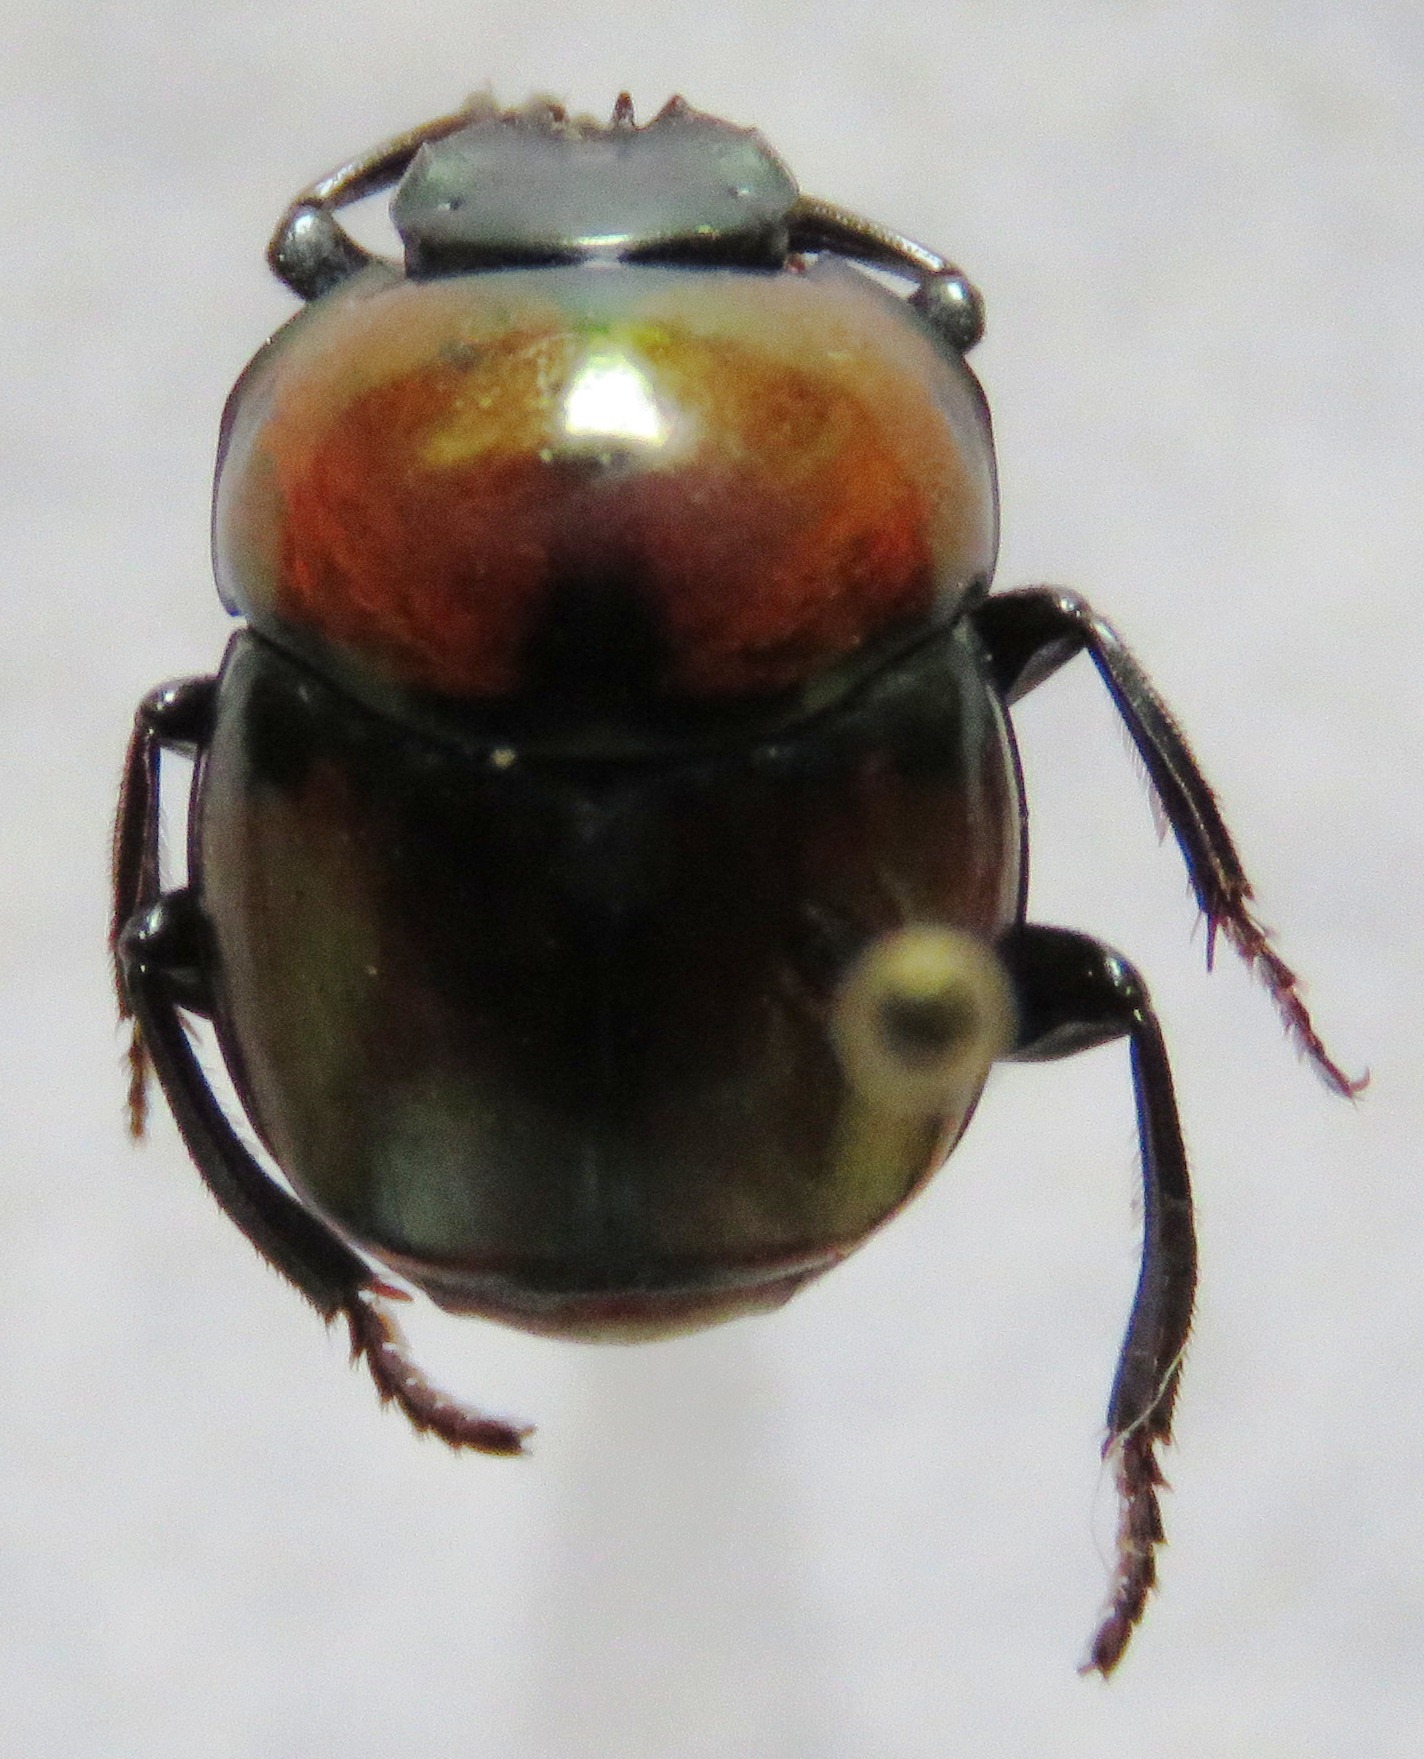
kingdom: Animalia
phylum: Arthropoda
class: Insecta
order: Coleoptera
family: Scarabaeidae
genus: Canthon
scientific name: Canthon cyanellus
